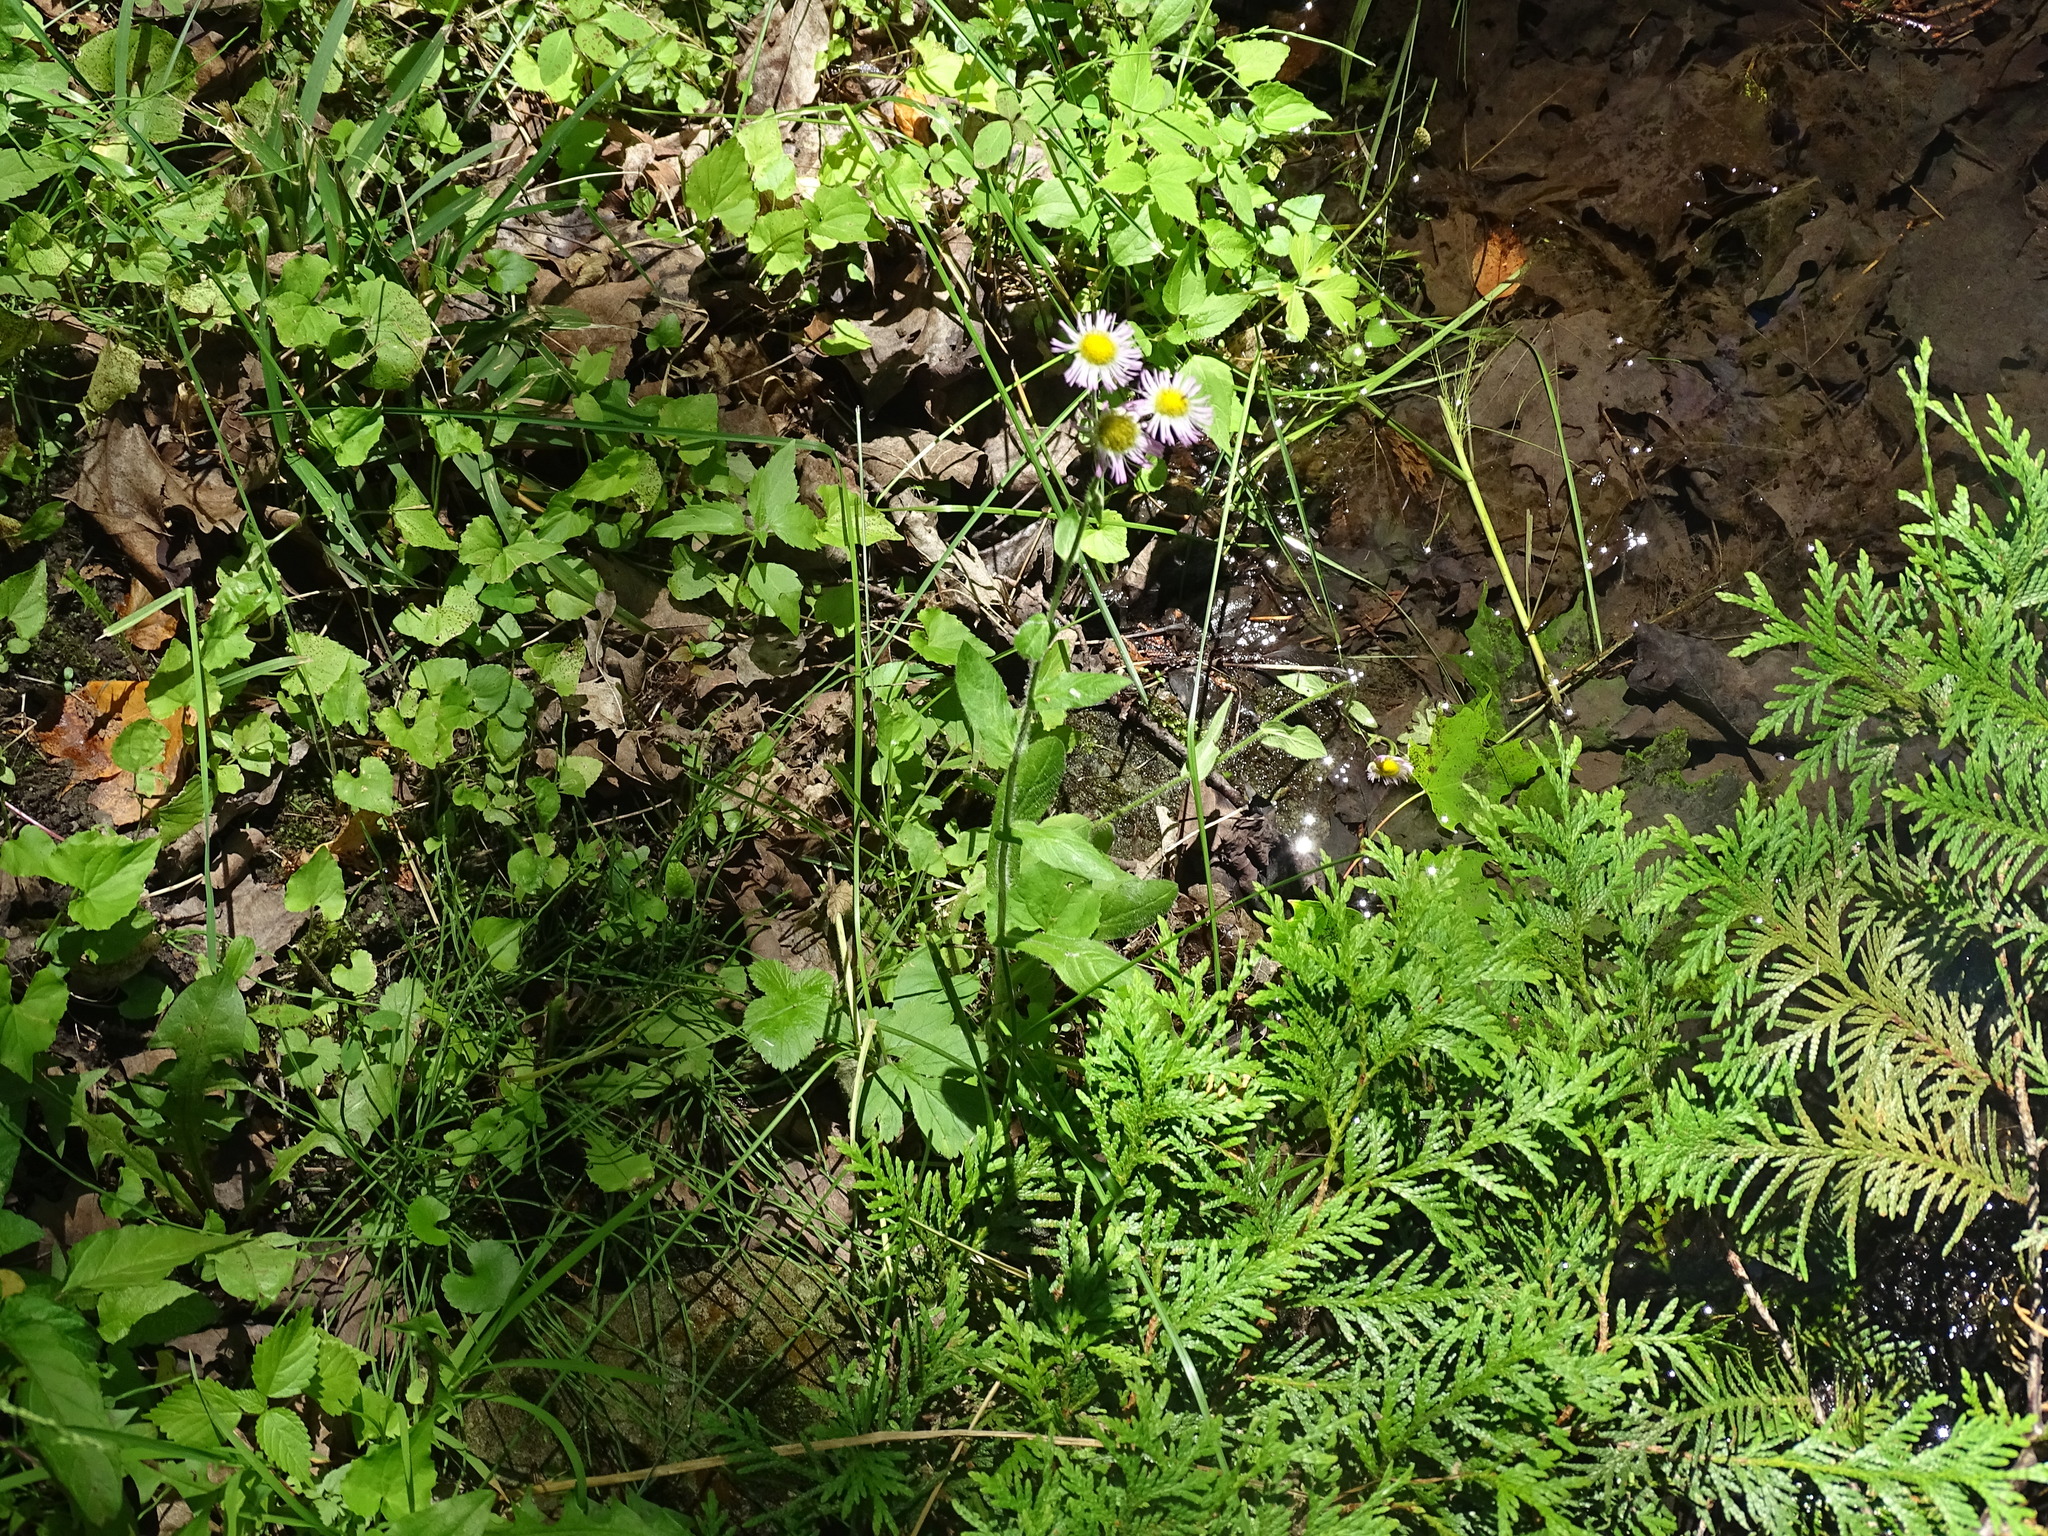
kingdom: Plantae
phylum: Tracheophyta
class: Magnoliopsida
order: Asterales
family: Asteraceae
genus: Erigeron
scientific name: Erigeron philadelphicus
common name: Robin's-plantain
